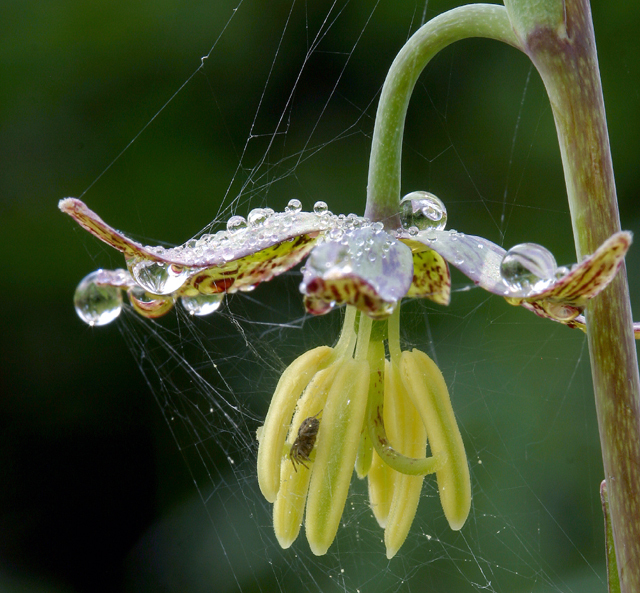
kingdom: Plantae
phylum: Tracheophyta
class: Liliopsida
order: Liliales
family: Liliaceae
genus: Fritillaria
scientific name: Fritillaria atropurpurea
